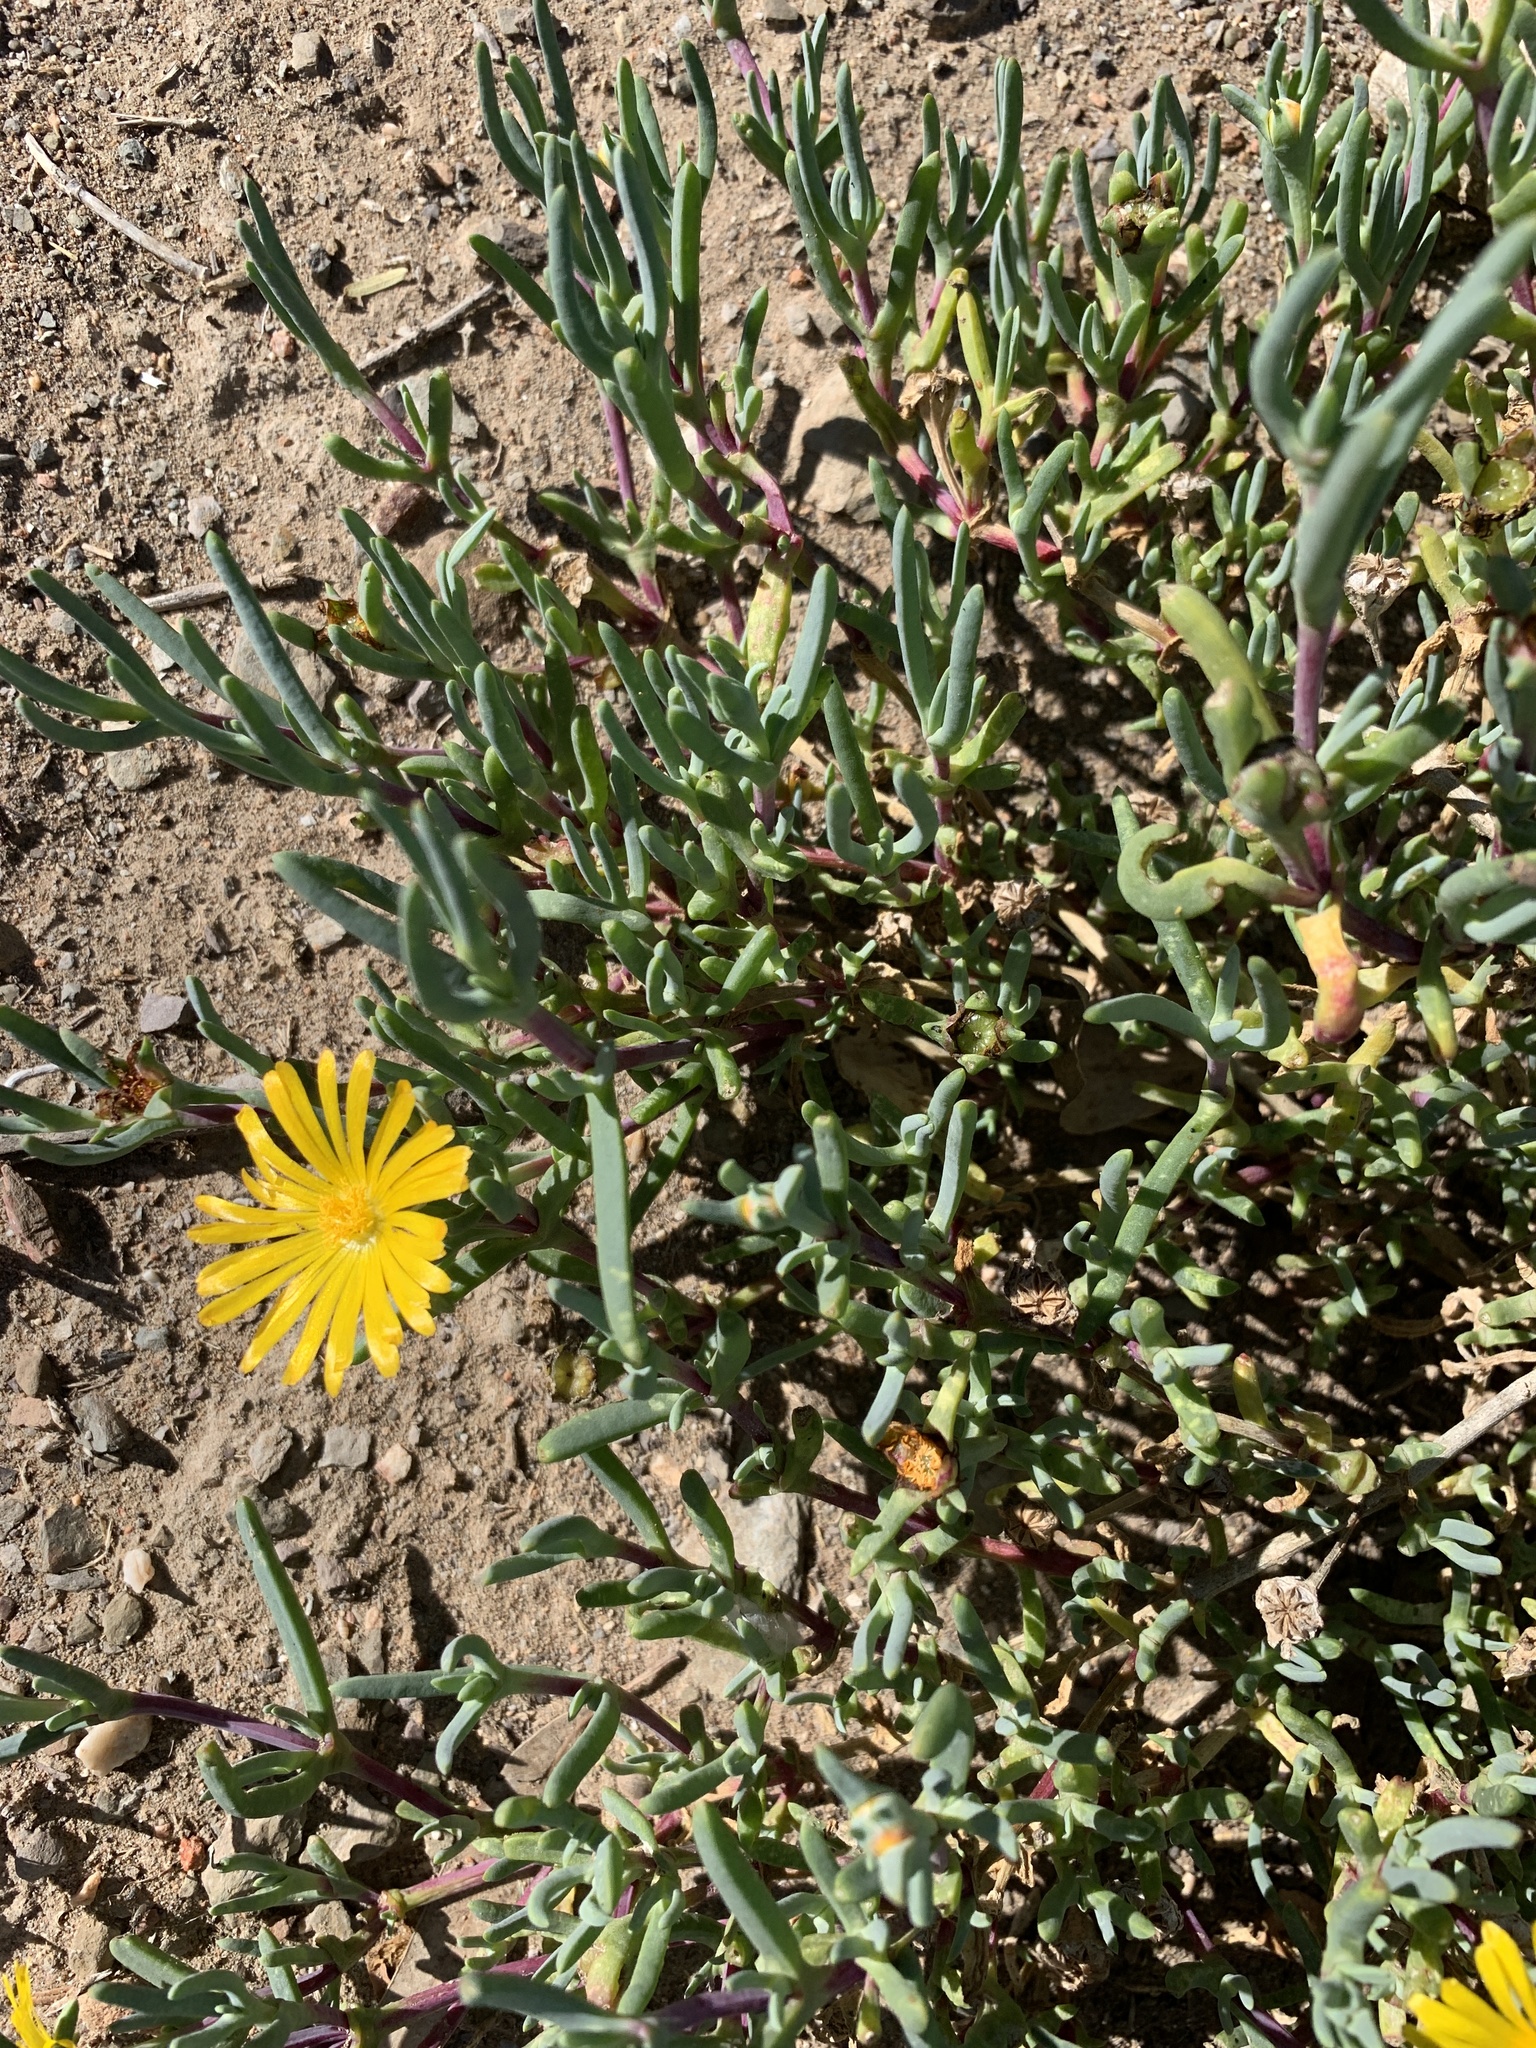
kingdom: Plantae
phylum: Tracheophyta
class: Magnoliopsida
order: Caryophyllales
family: Aizoaceae
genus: Malephora
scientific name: Malephora lutea
